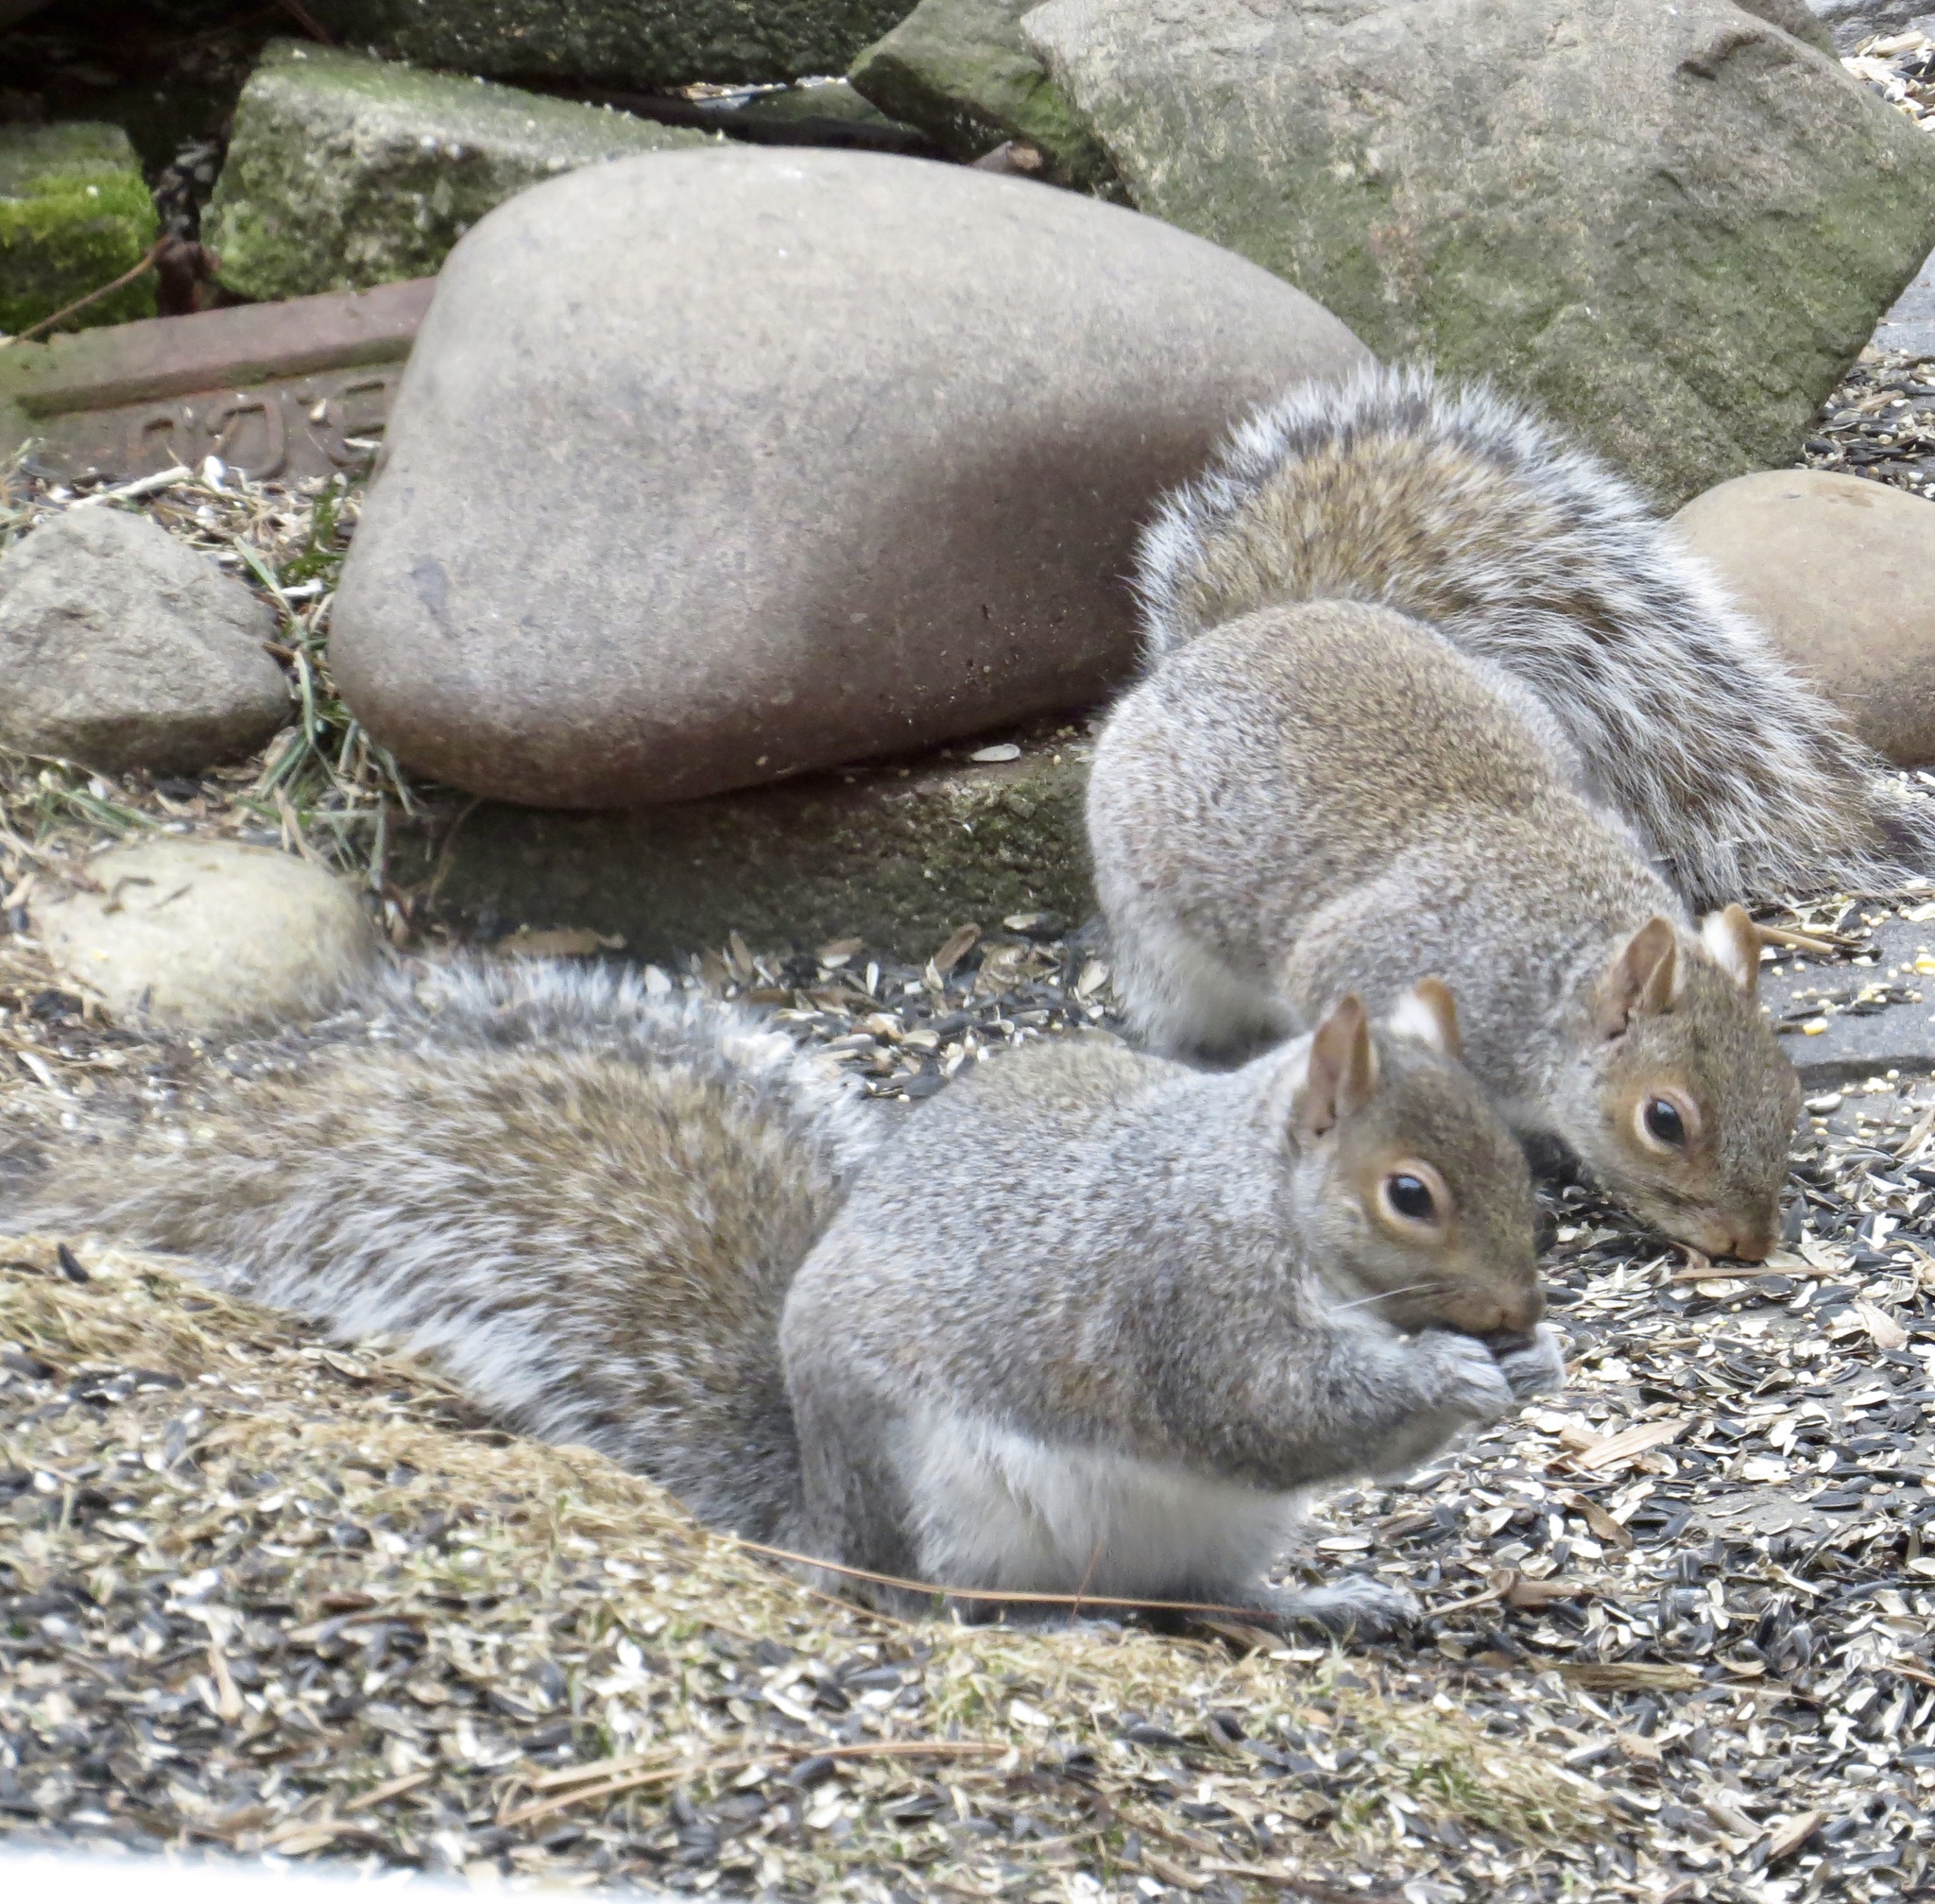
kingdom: Animalia
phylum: Chordata
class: Mammalia
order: Rodentia
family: Sciuridae
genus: Sciurus
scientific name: Sciurus carolinensis
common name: Eastern gray squirrel
